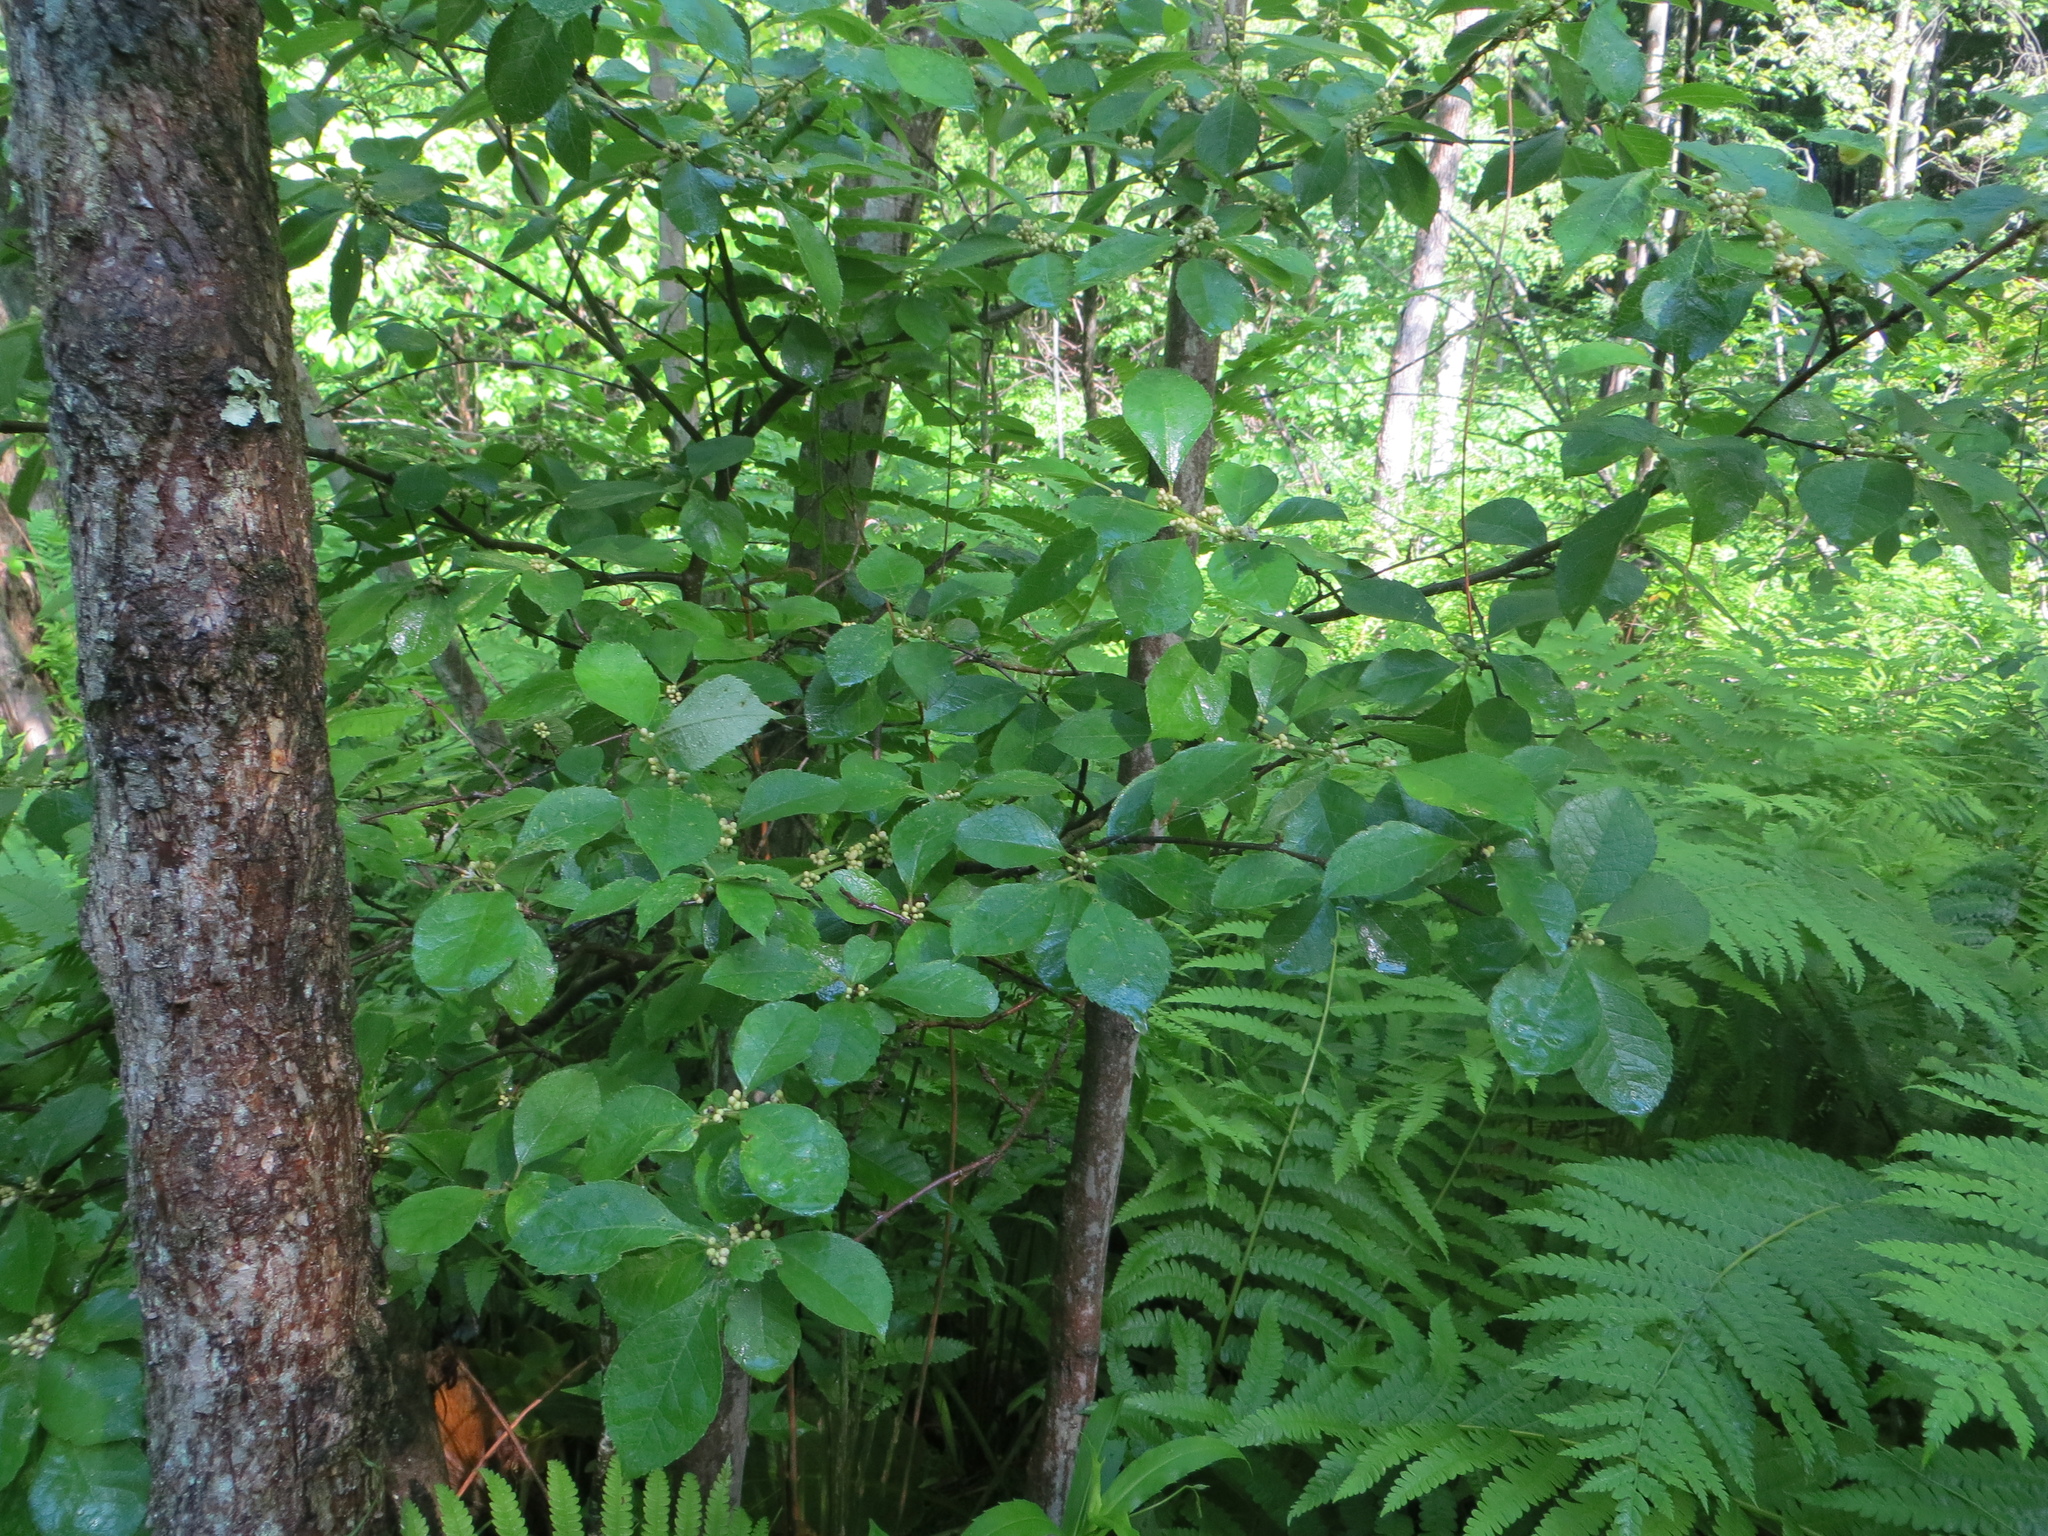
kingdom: Plantae
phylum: Tracheophyta
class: Magnoliopsida
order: Aquifoliales
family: Aquifoliaceae
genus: Ilex
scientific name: Ilex verticillata
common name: Virginia winterberry
